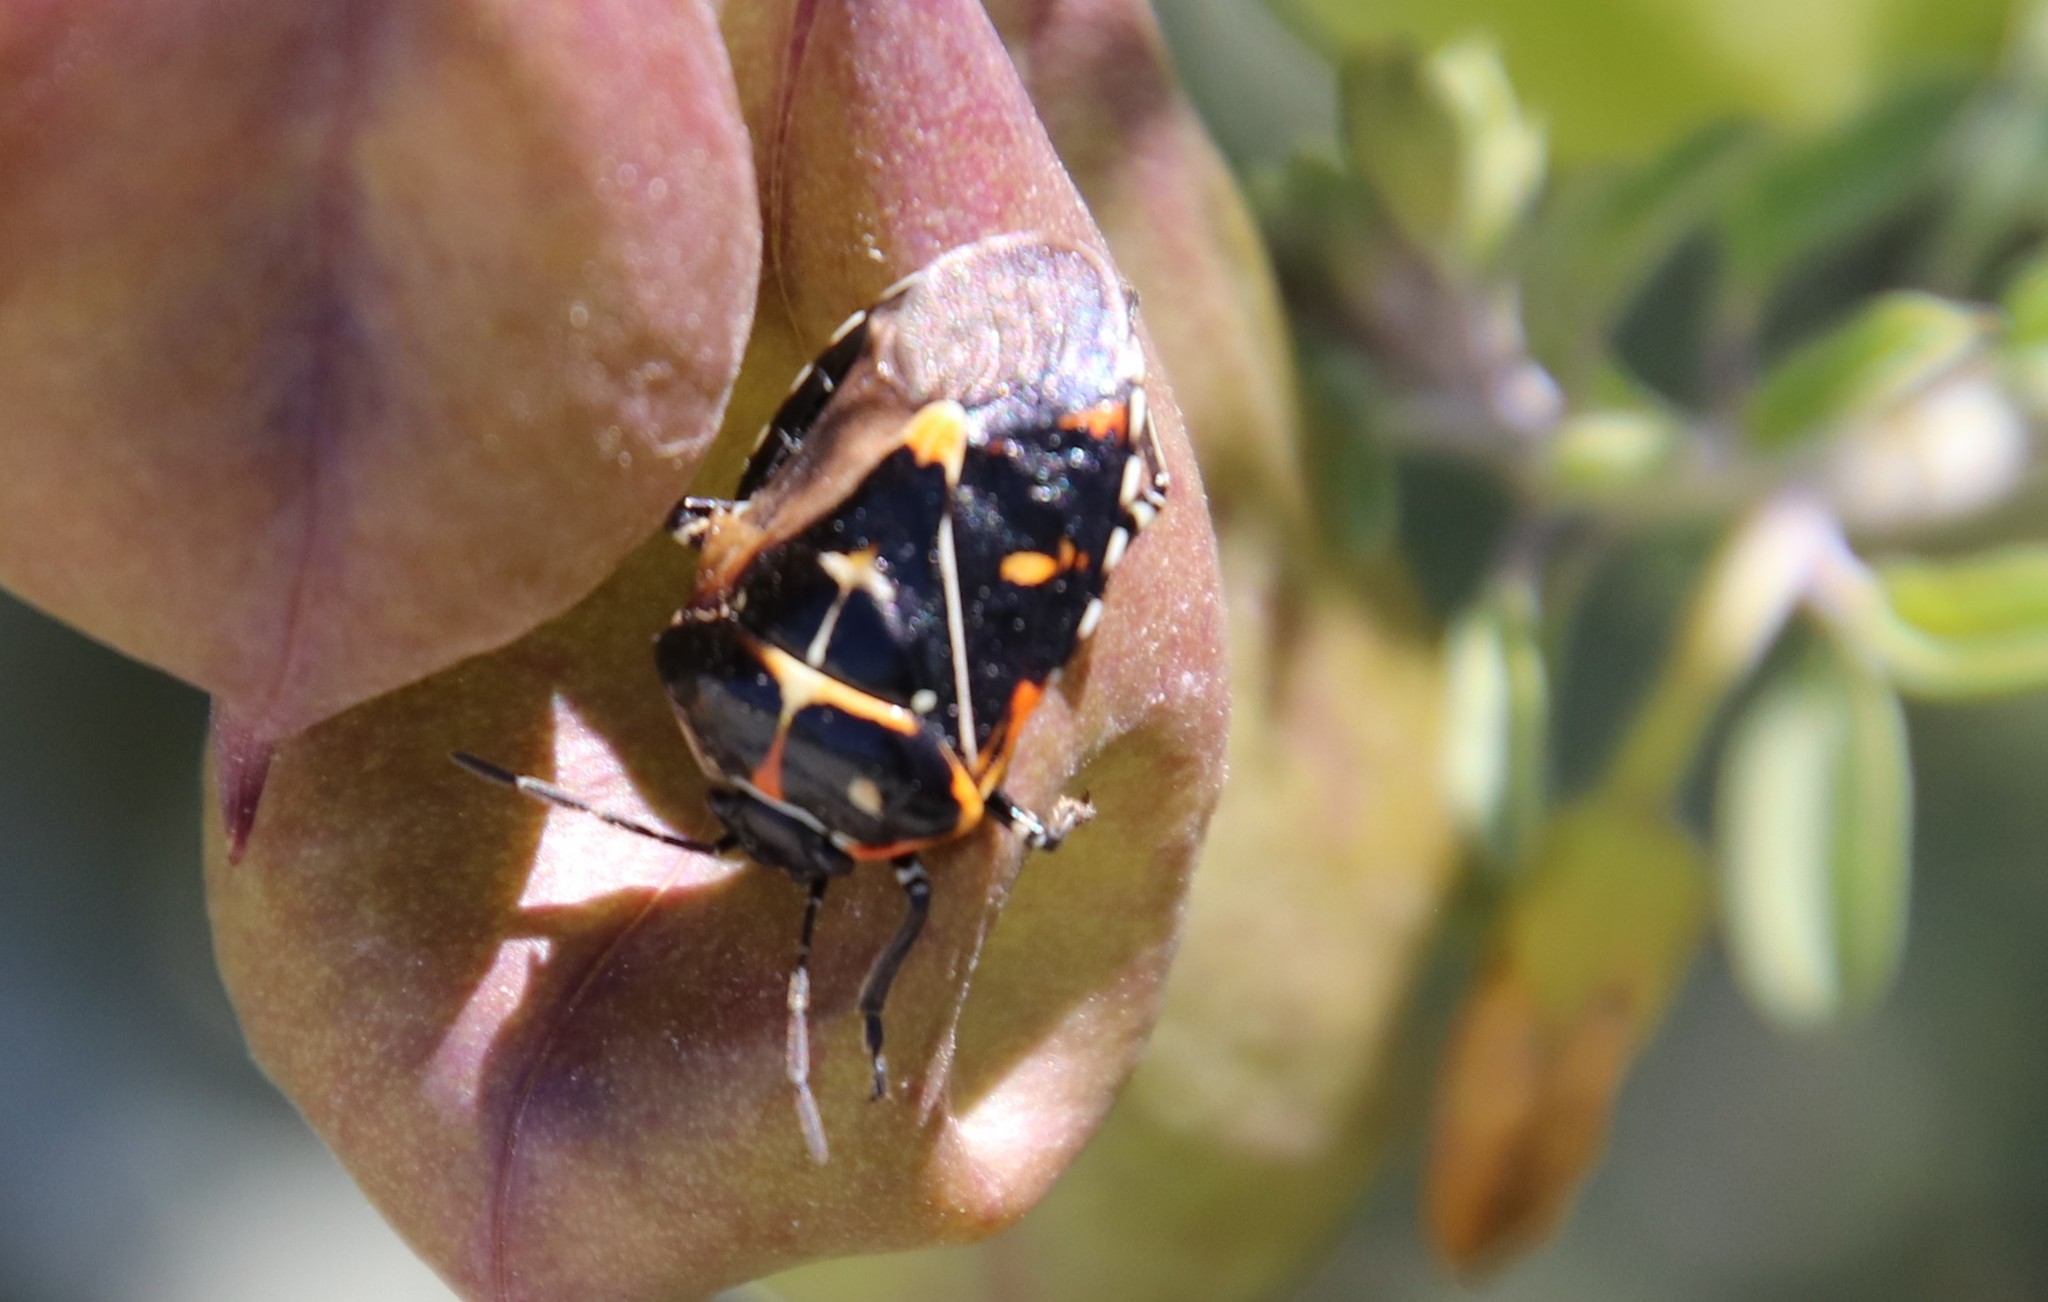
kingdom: Animalia
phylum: Arthropoda
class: Insecta
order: Hemiptera
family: Pentatomidae
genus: Murgantia
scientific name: Murgantia histrionica
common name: Harlequin bug
